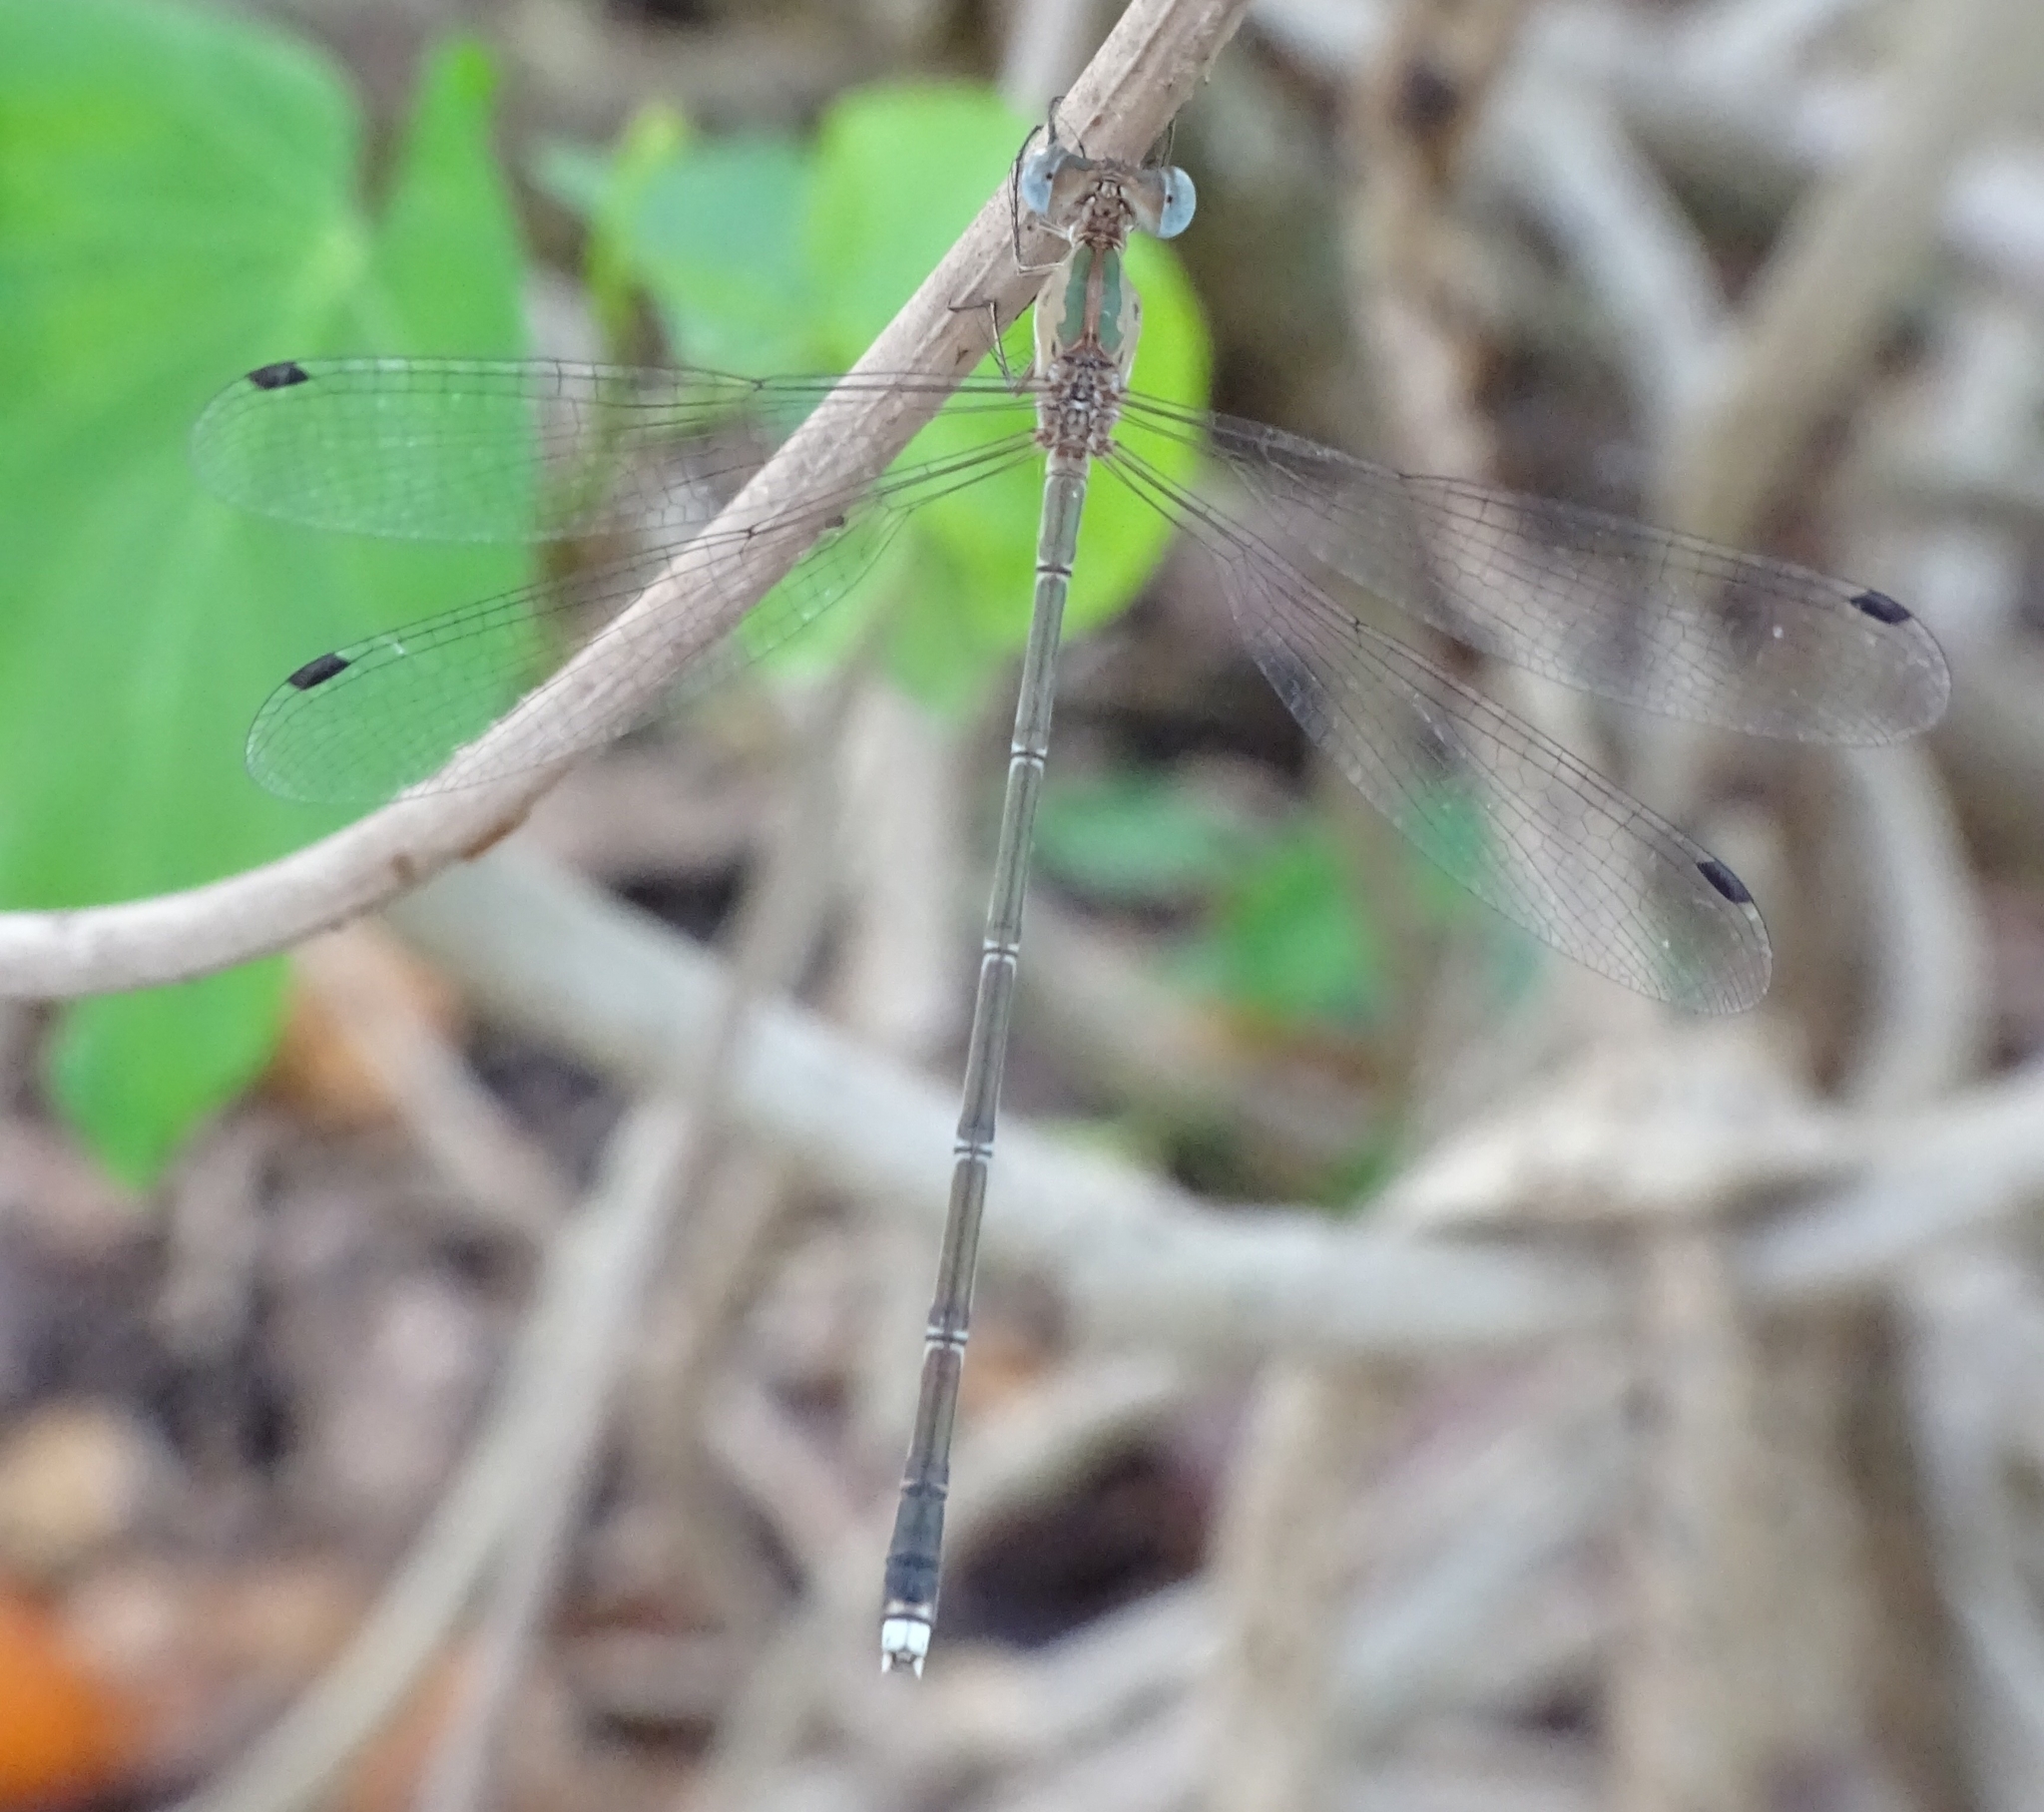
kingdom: Animalia
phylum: Arthropoda
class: Insecta
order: Odonata
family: Lestidae
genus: Lestes
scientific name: Lestes elatus
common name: Emerald spreadwing
